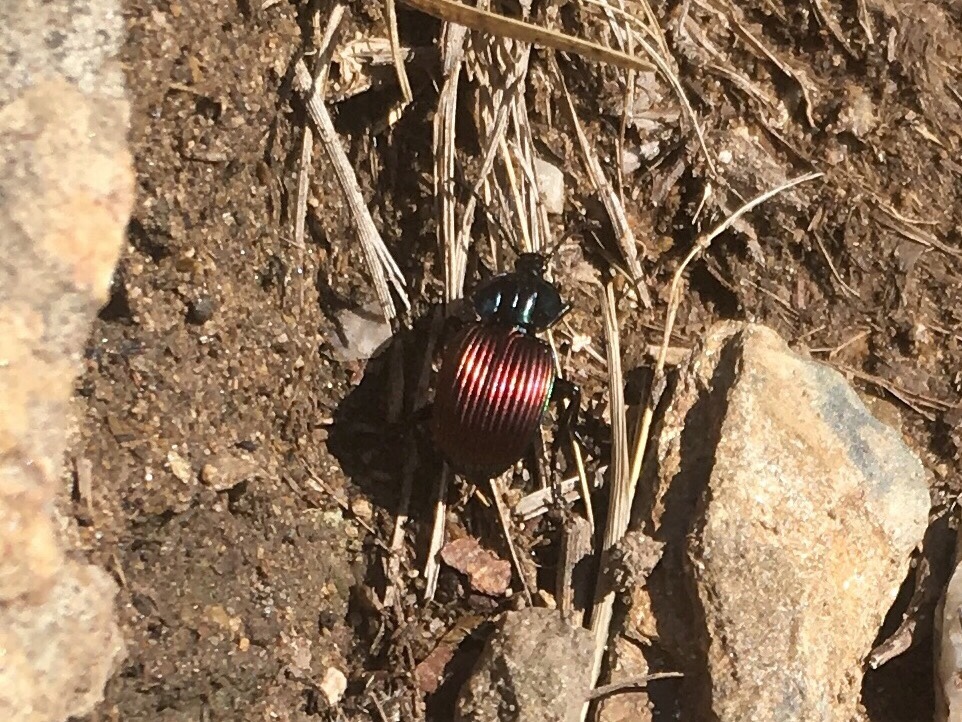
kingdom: Animalia
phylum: Arthropoda
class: Insecta
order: Coleoptera
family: Carabidae
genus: Brachygnathus
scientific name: Brachygnathus festivus
